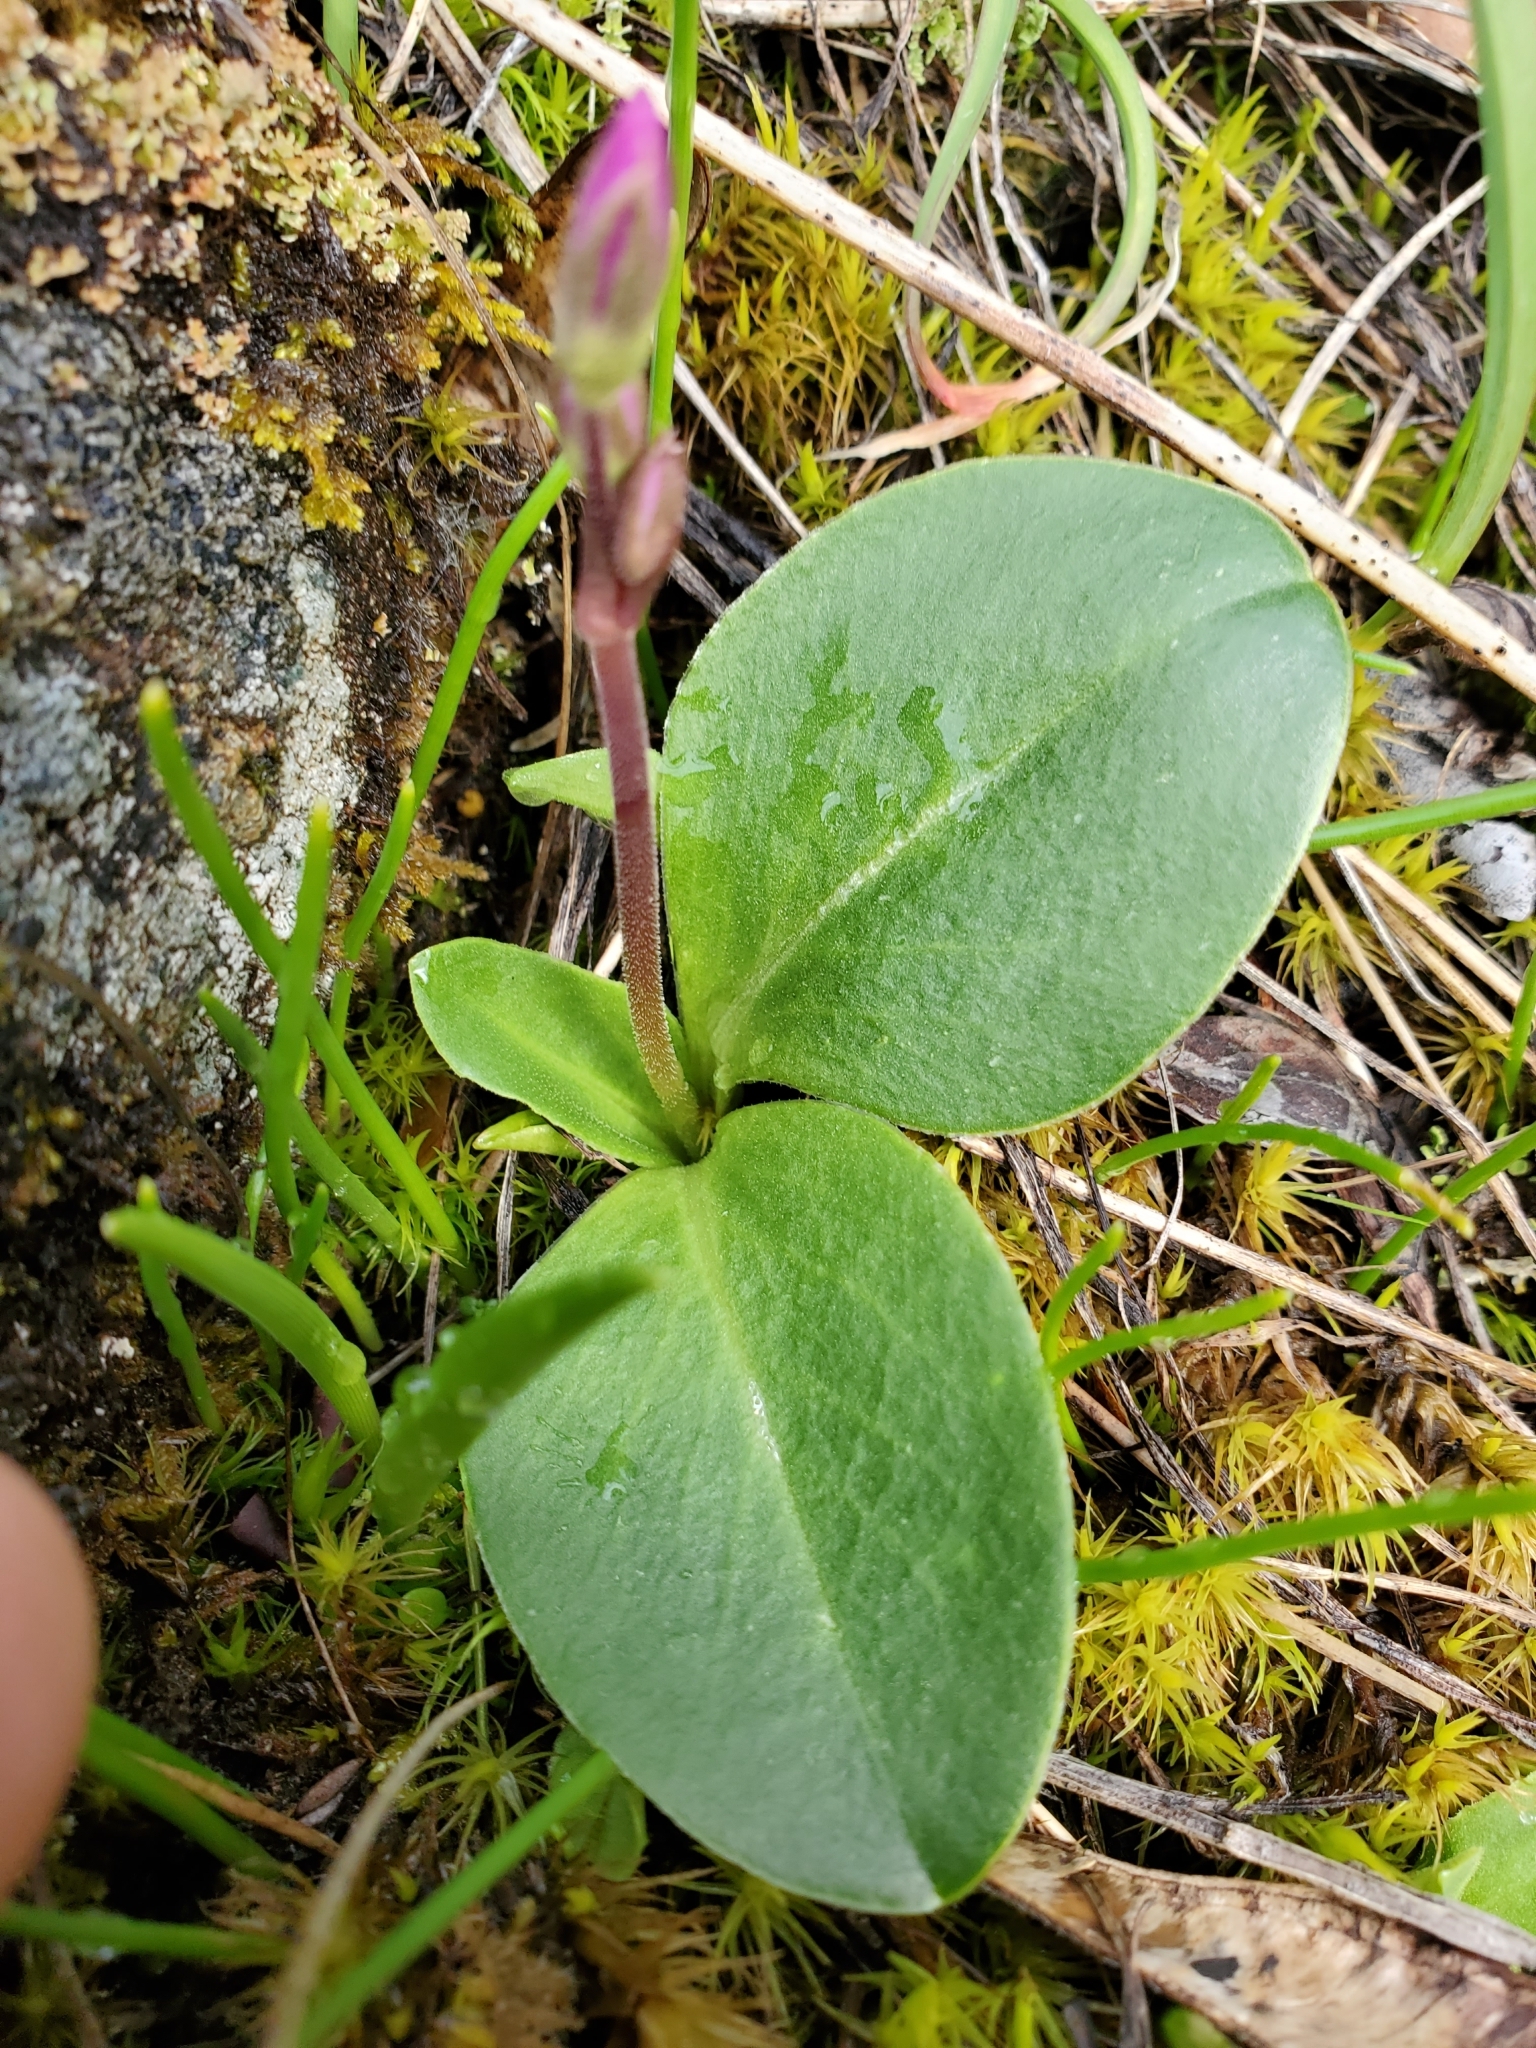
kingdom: Plantae
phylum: Tracheophyta
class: Magnoliopsida
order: Ericales
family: Primulaceae
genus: Dodecatheon
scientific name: Dodecatheon hendersonii
